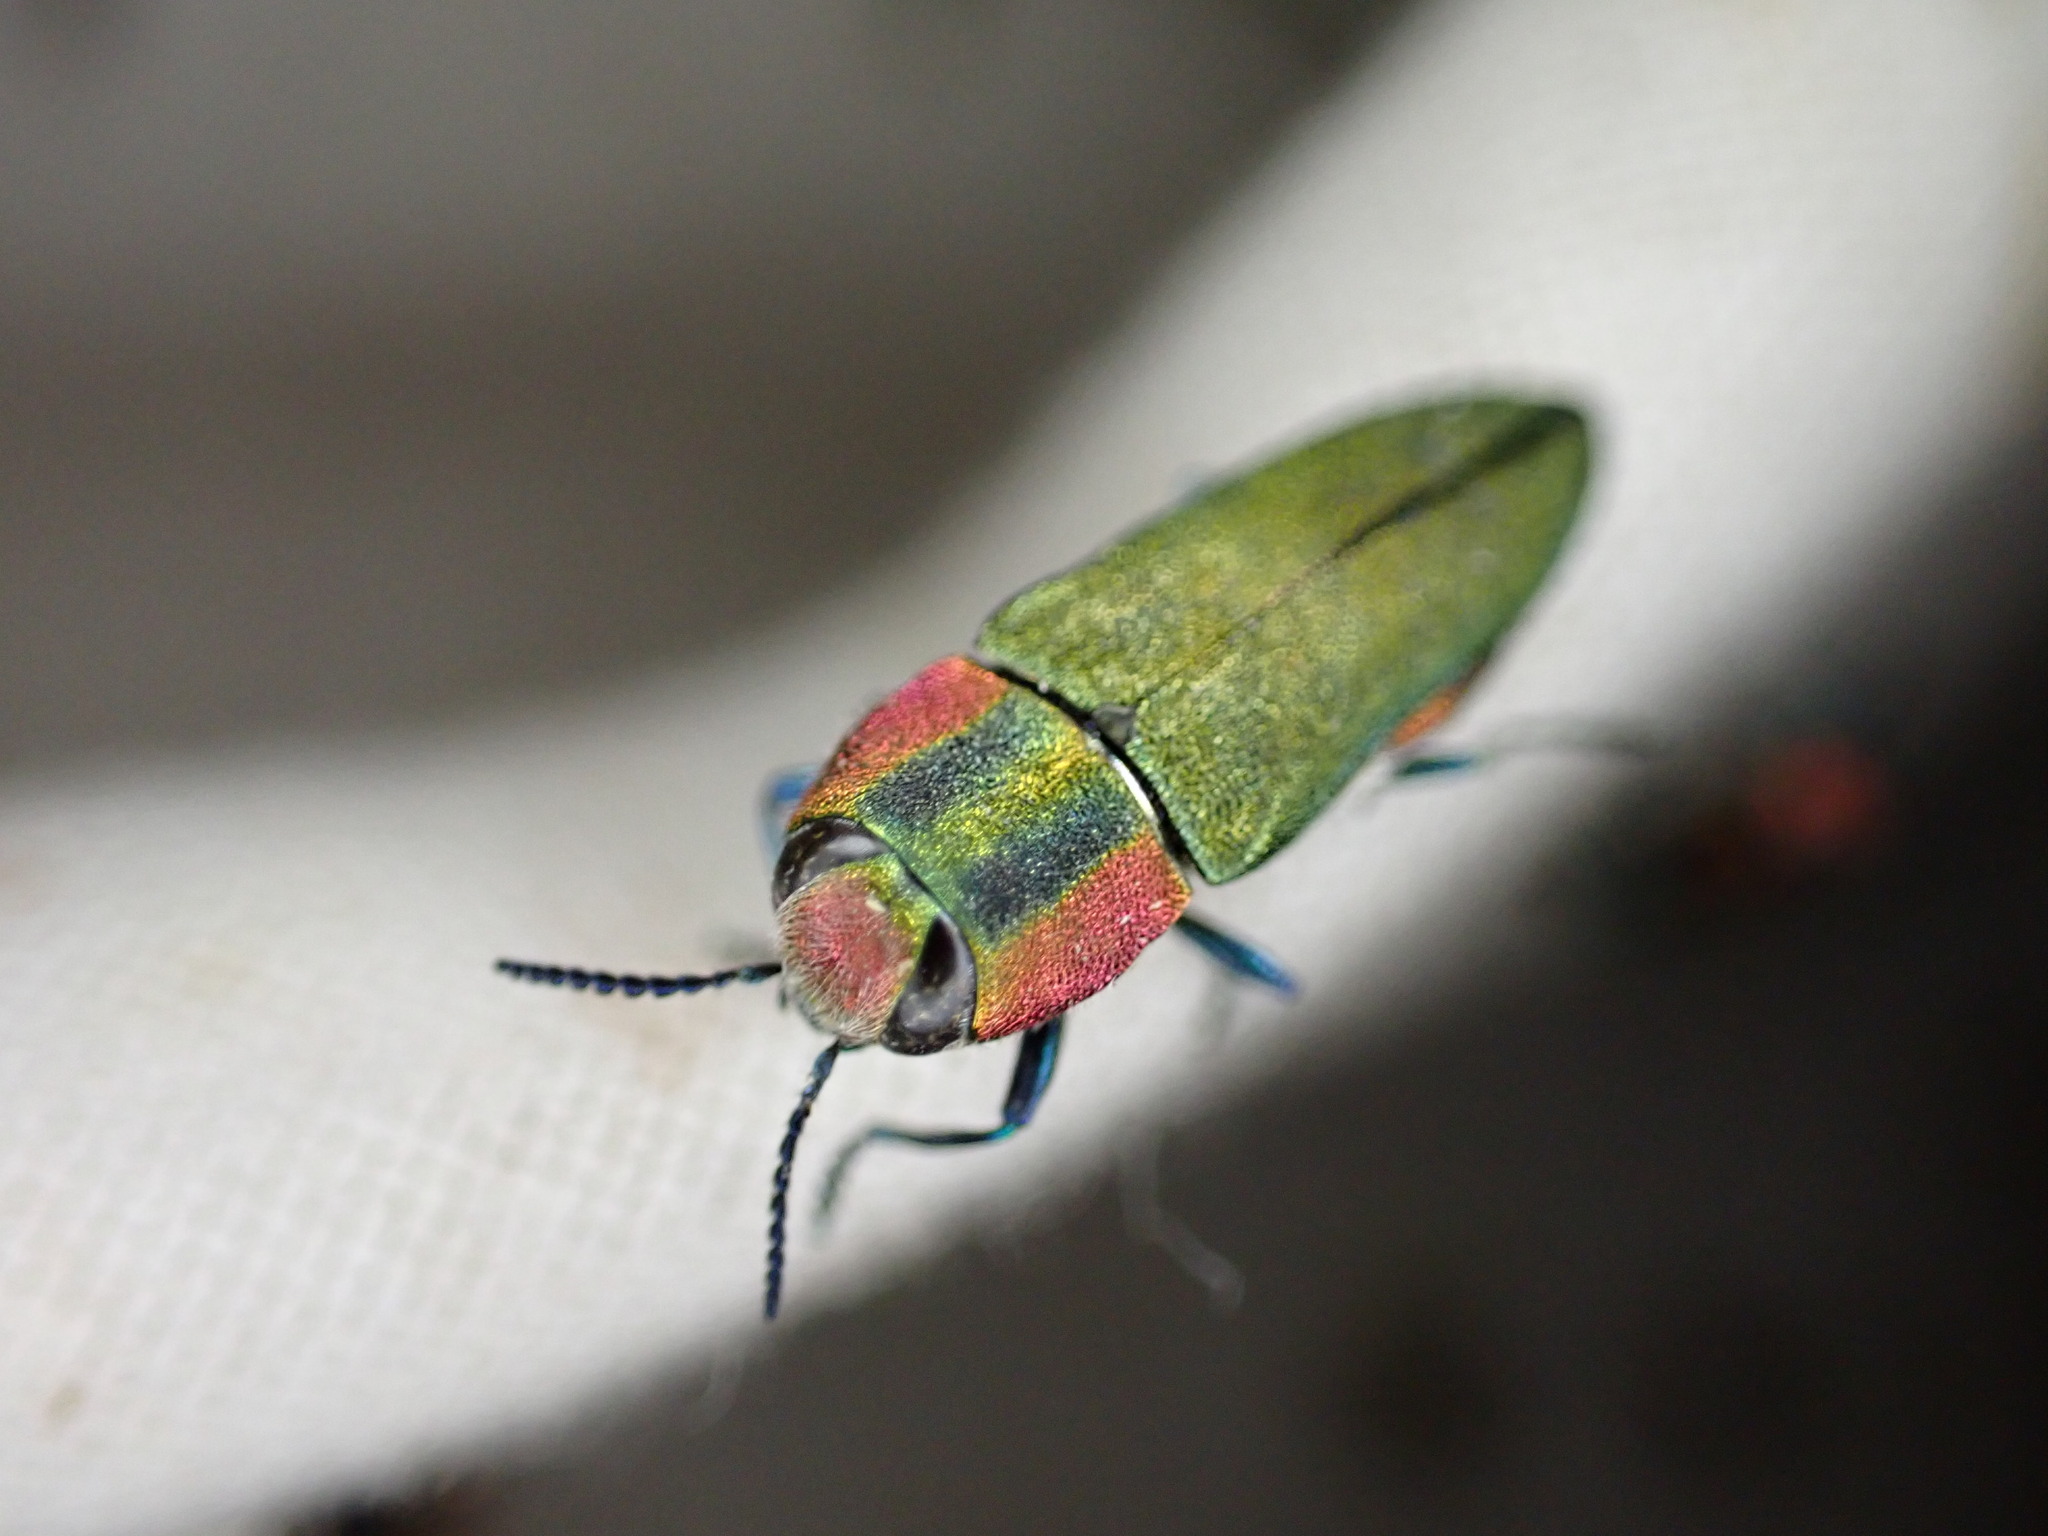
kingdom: Animalia
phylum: Arthropoda
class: Insecta
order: Coleoptera
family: Buprestidae
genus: Anthaxia
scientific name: Anthaxia hungarica
